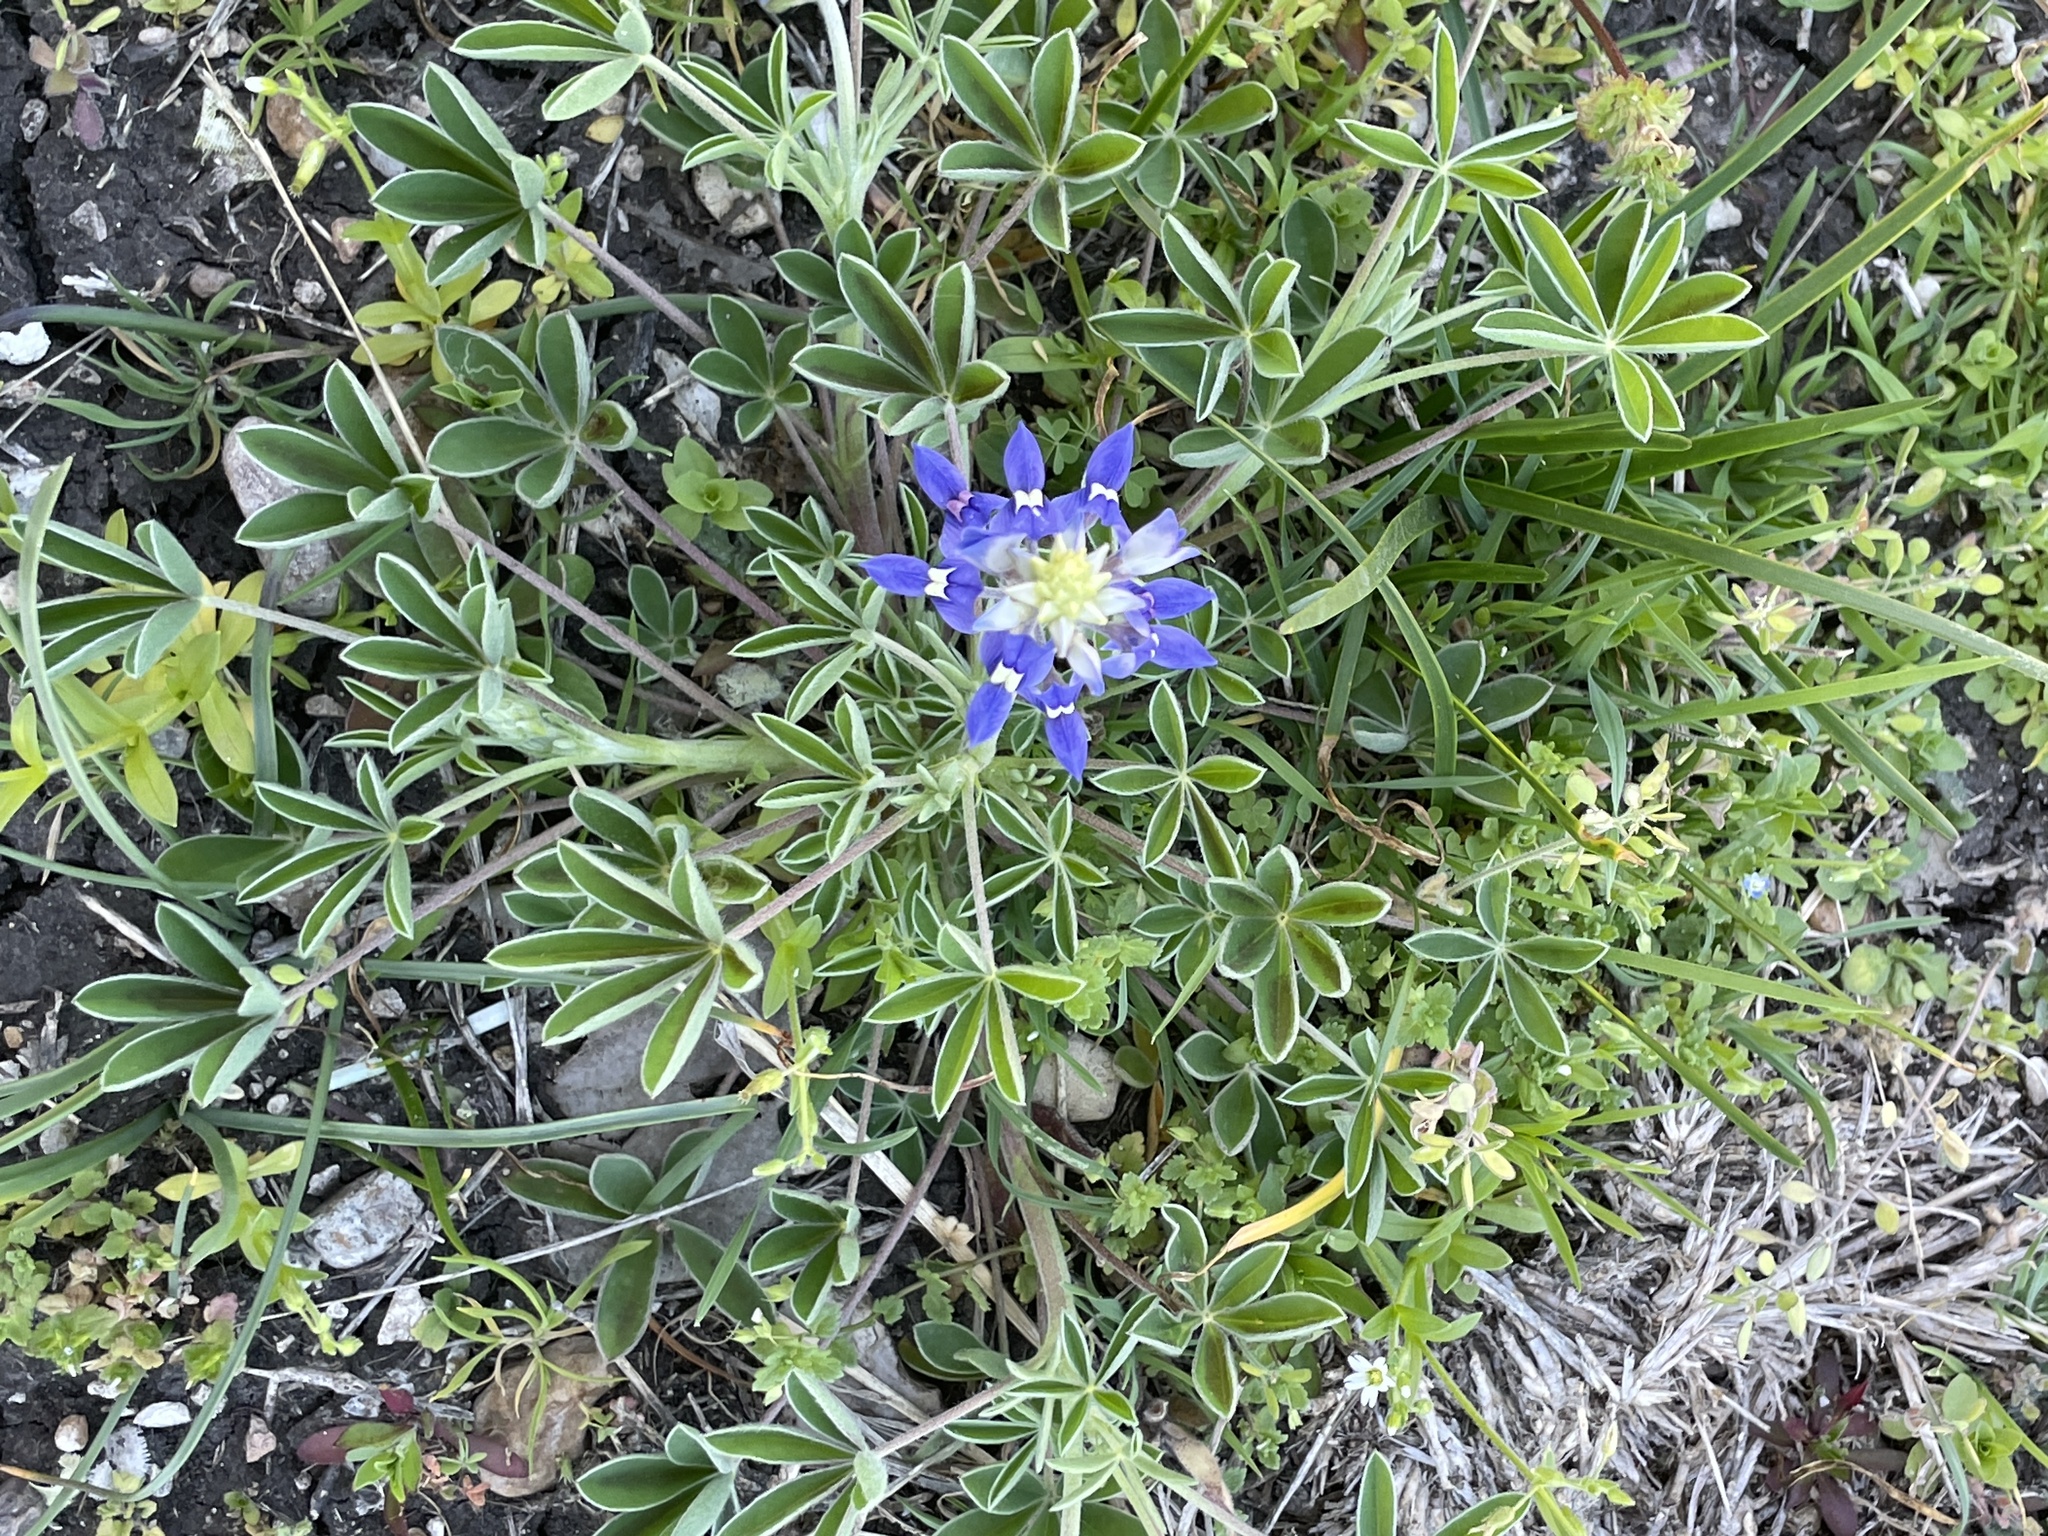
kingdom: Plantae
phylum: Tracheophyta
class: Magnoliopsida
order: Fabales
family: Fabaceae
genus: Lupinus
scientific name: Lupinus texensis
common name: Texas bluebonnet
